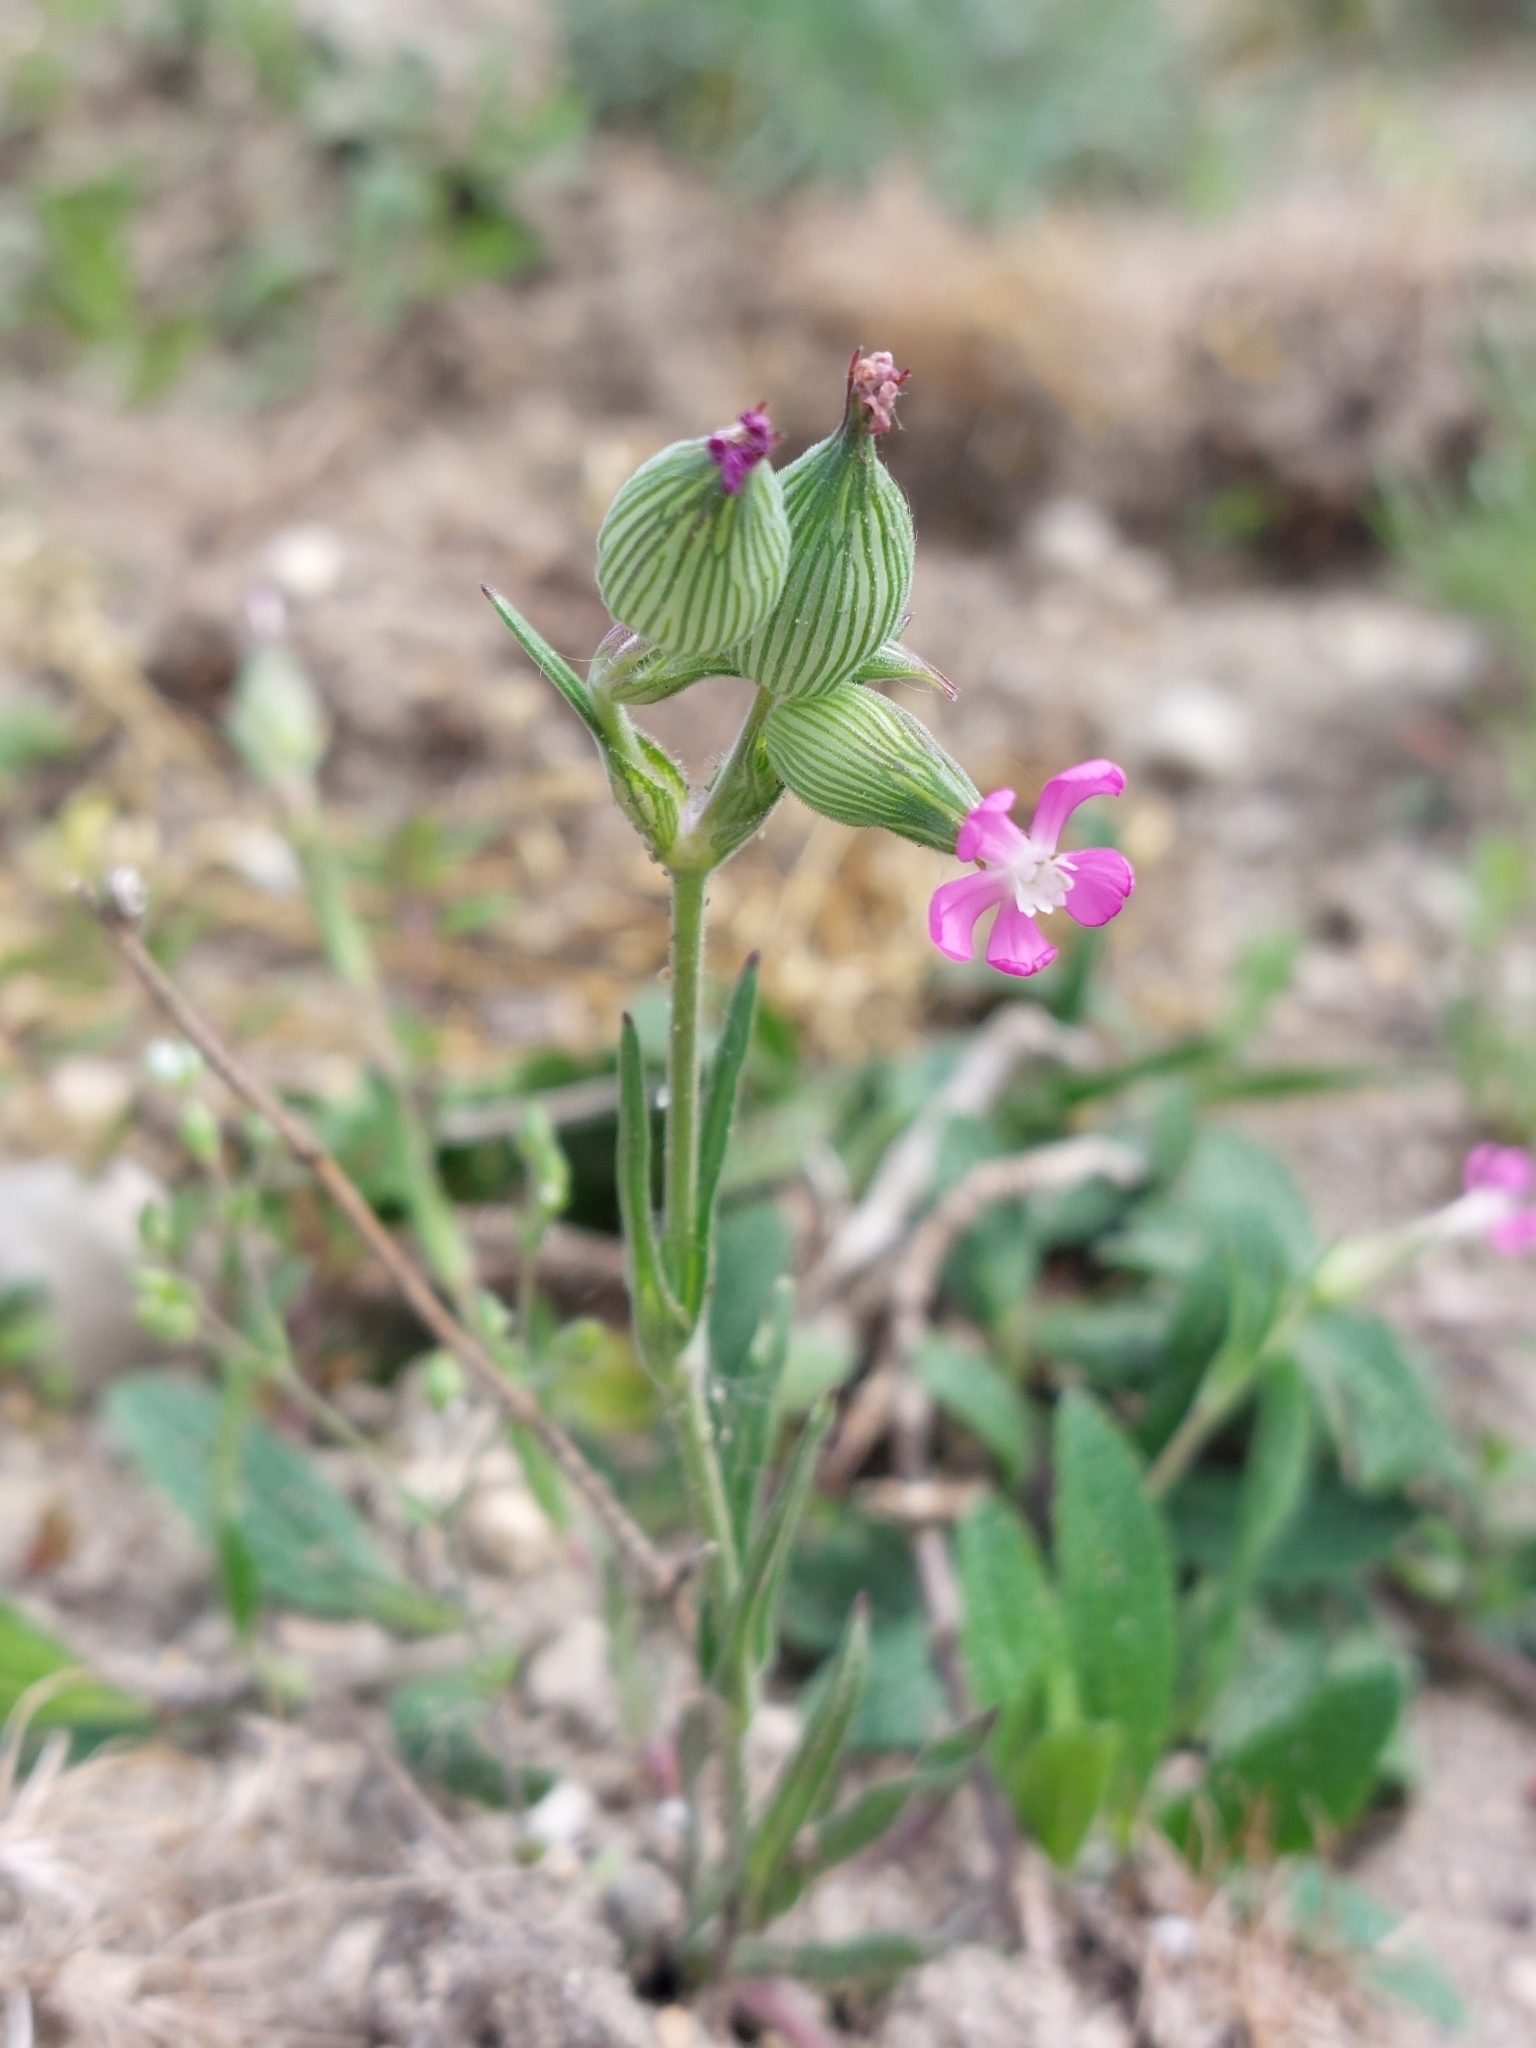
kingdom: Plantae
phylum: Tracheophyta
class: Magnoliopsida
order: Caryophyllales
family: Caryophyllaceae
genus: Silene
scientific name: Silene conica
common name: Sand catchfly
